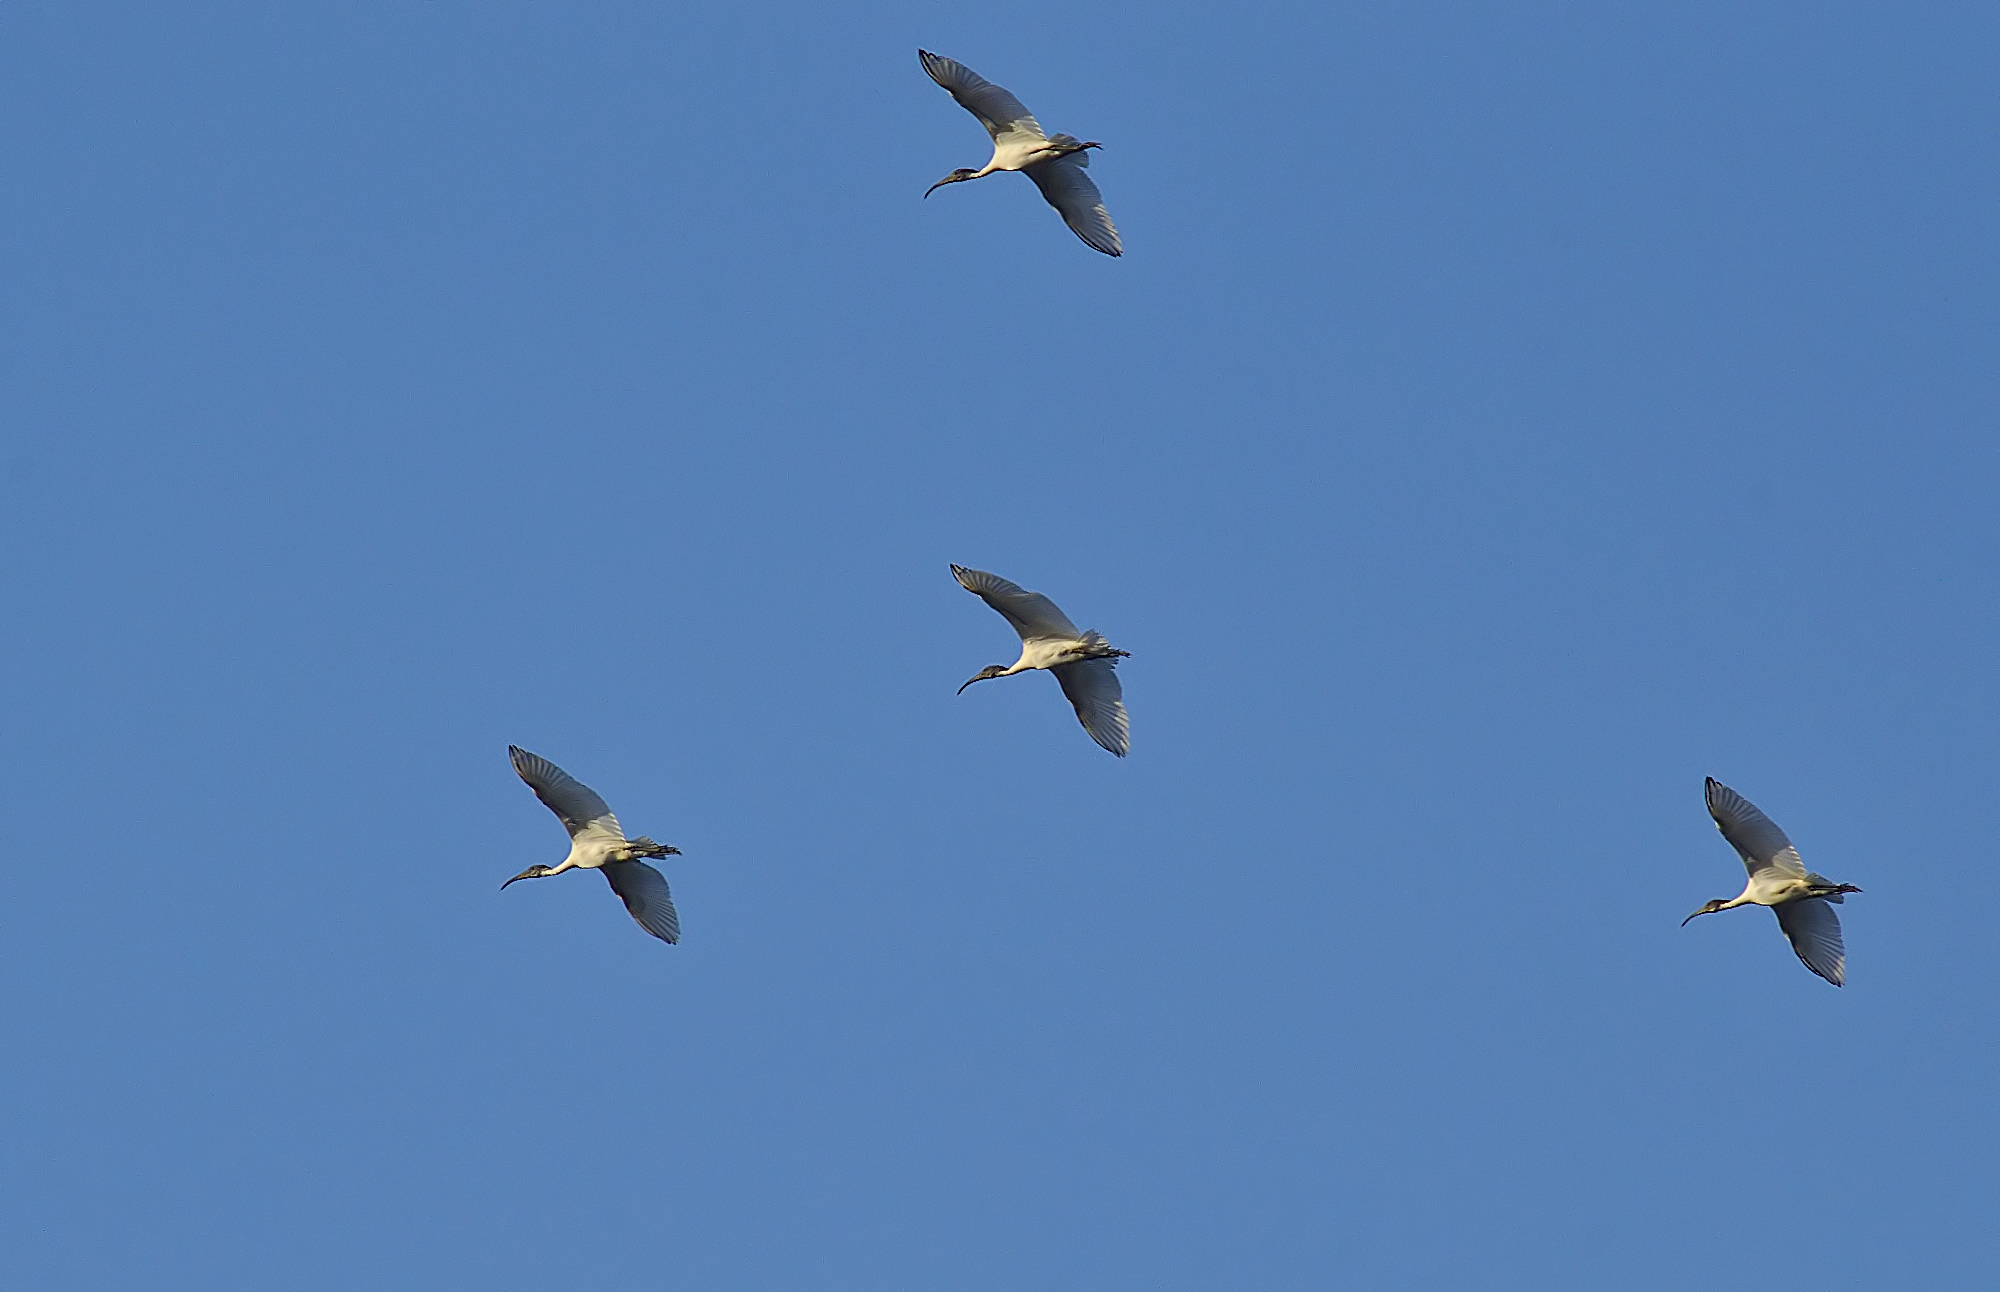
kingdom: Animalia
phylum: Chordata
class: Aves
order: Pelecaniformes
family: Threskiornithidae
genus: Threskiornis
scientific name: Threskiornis melanocephalus
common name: Black-headed ibis
